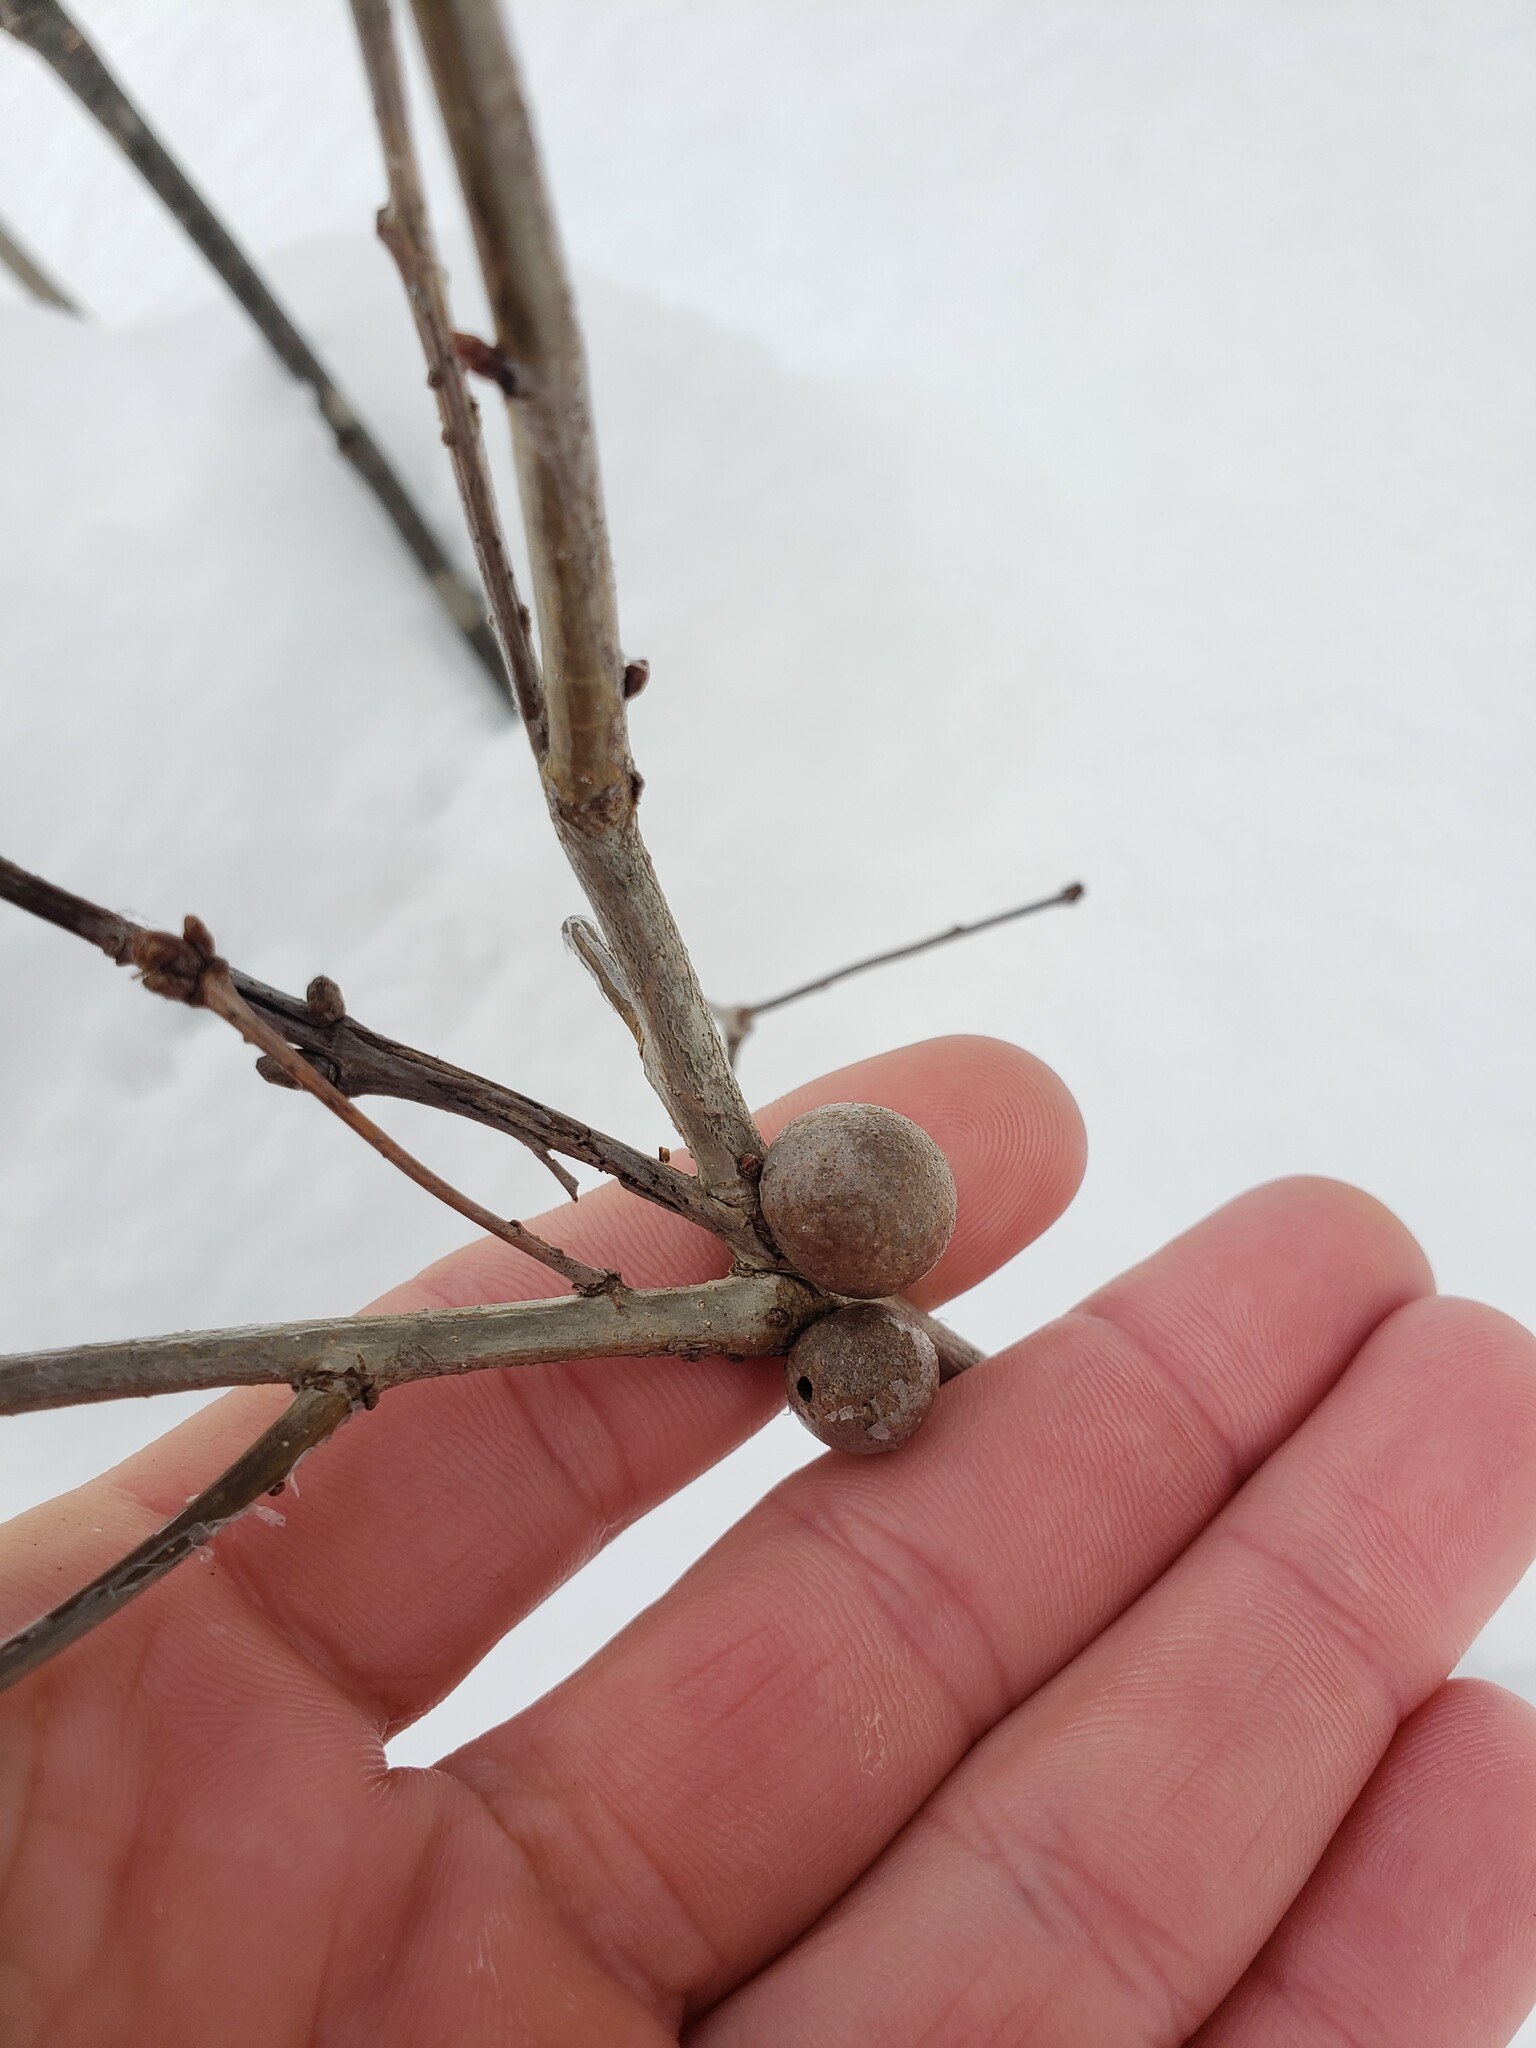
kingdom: Animalia
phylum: Arthropoda
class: Insecta
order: Hymenoptera
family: Cynipidae
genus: Disholcaspis
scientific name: Disholcaspis quercusglobulus
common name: Round bullet gall wasp
